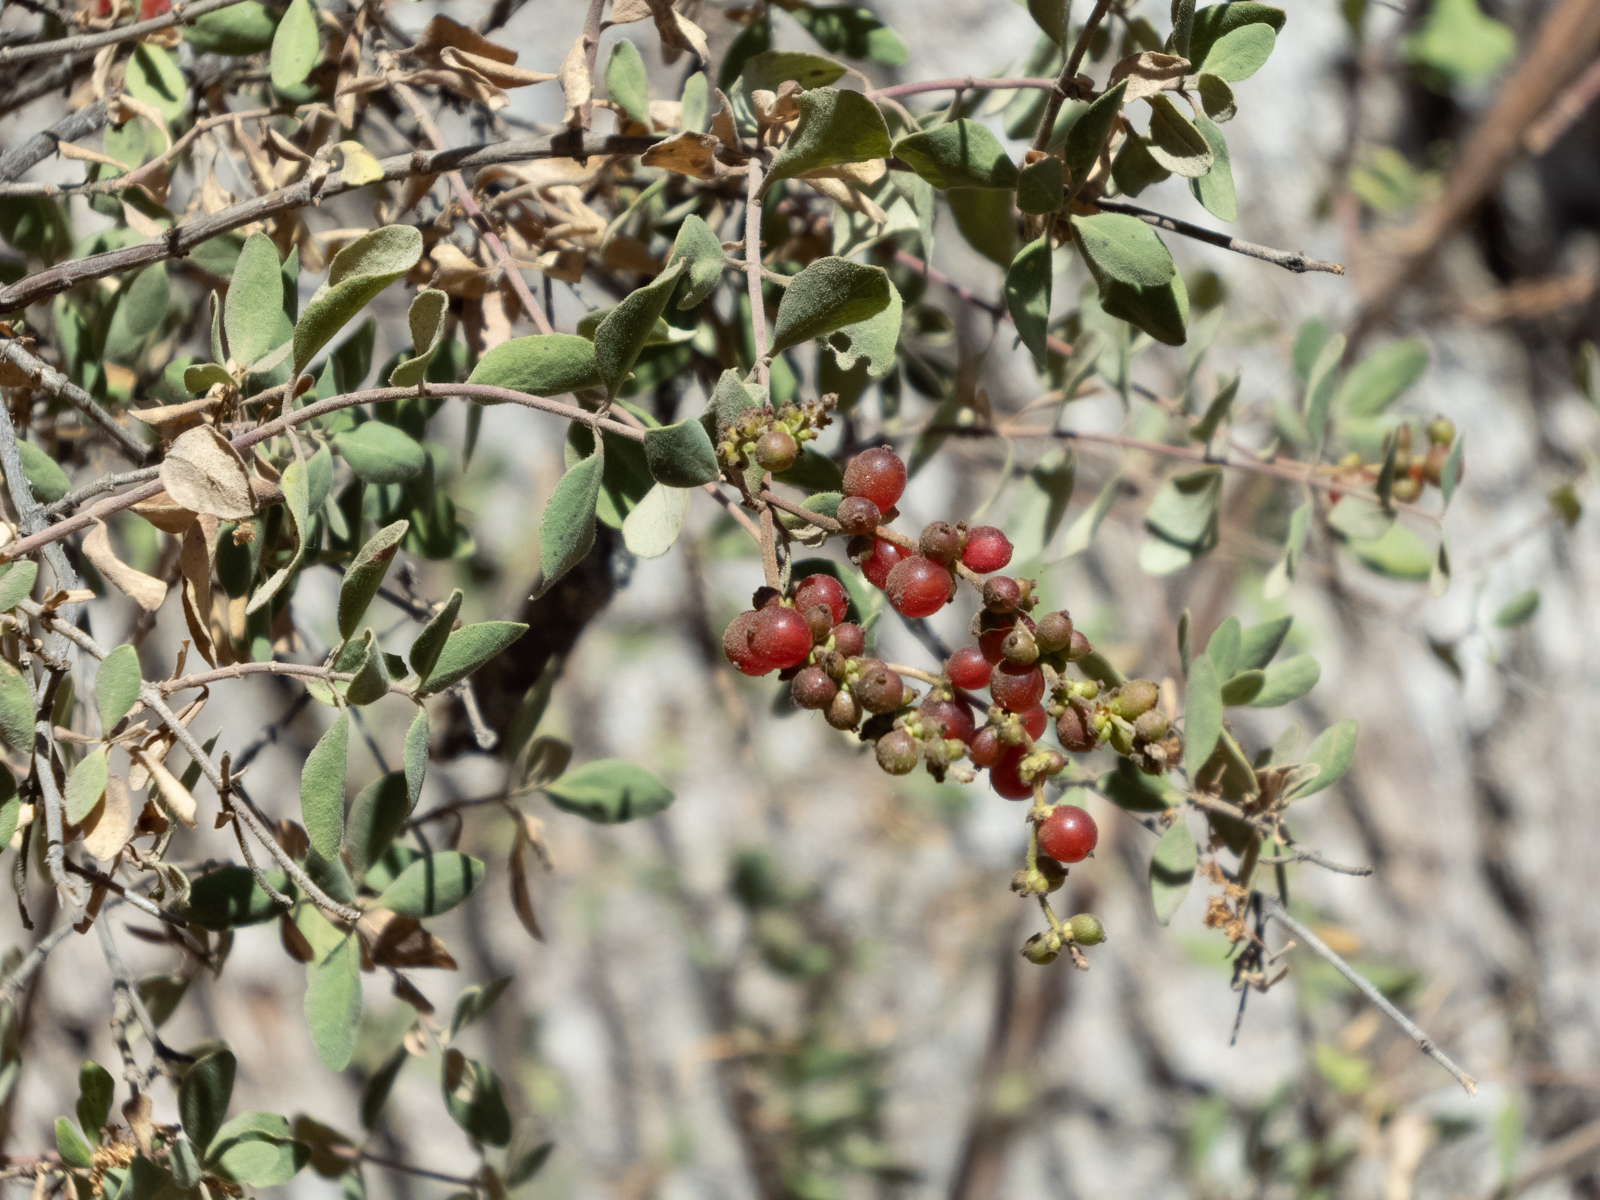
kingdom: Plantae
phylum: Tracheophyta
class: Magnoliopsida
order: Dipsacales
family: Caprifoliaceae
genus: Lonicera
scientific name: Lonicera subspicata
